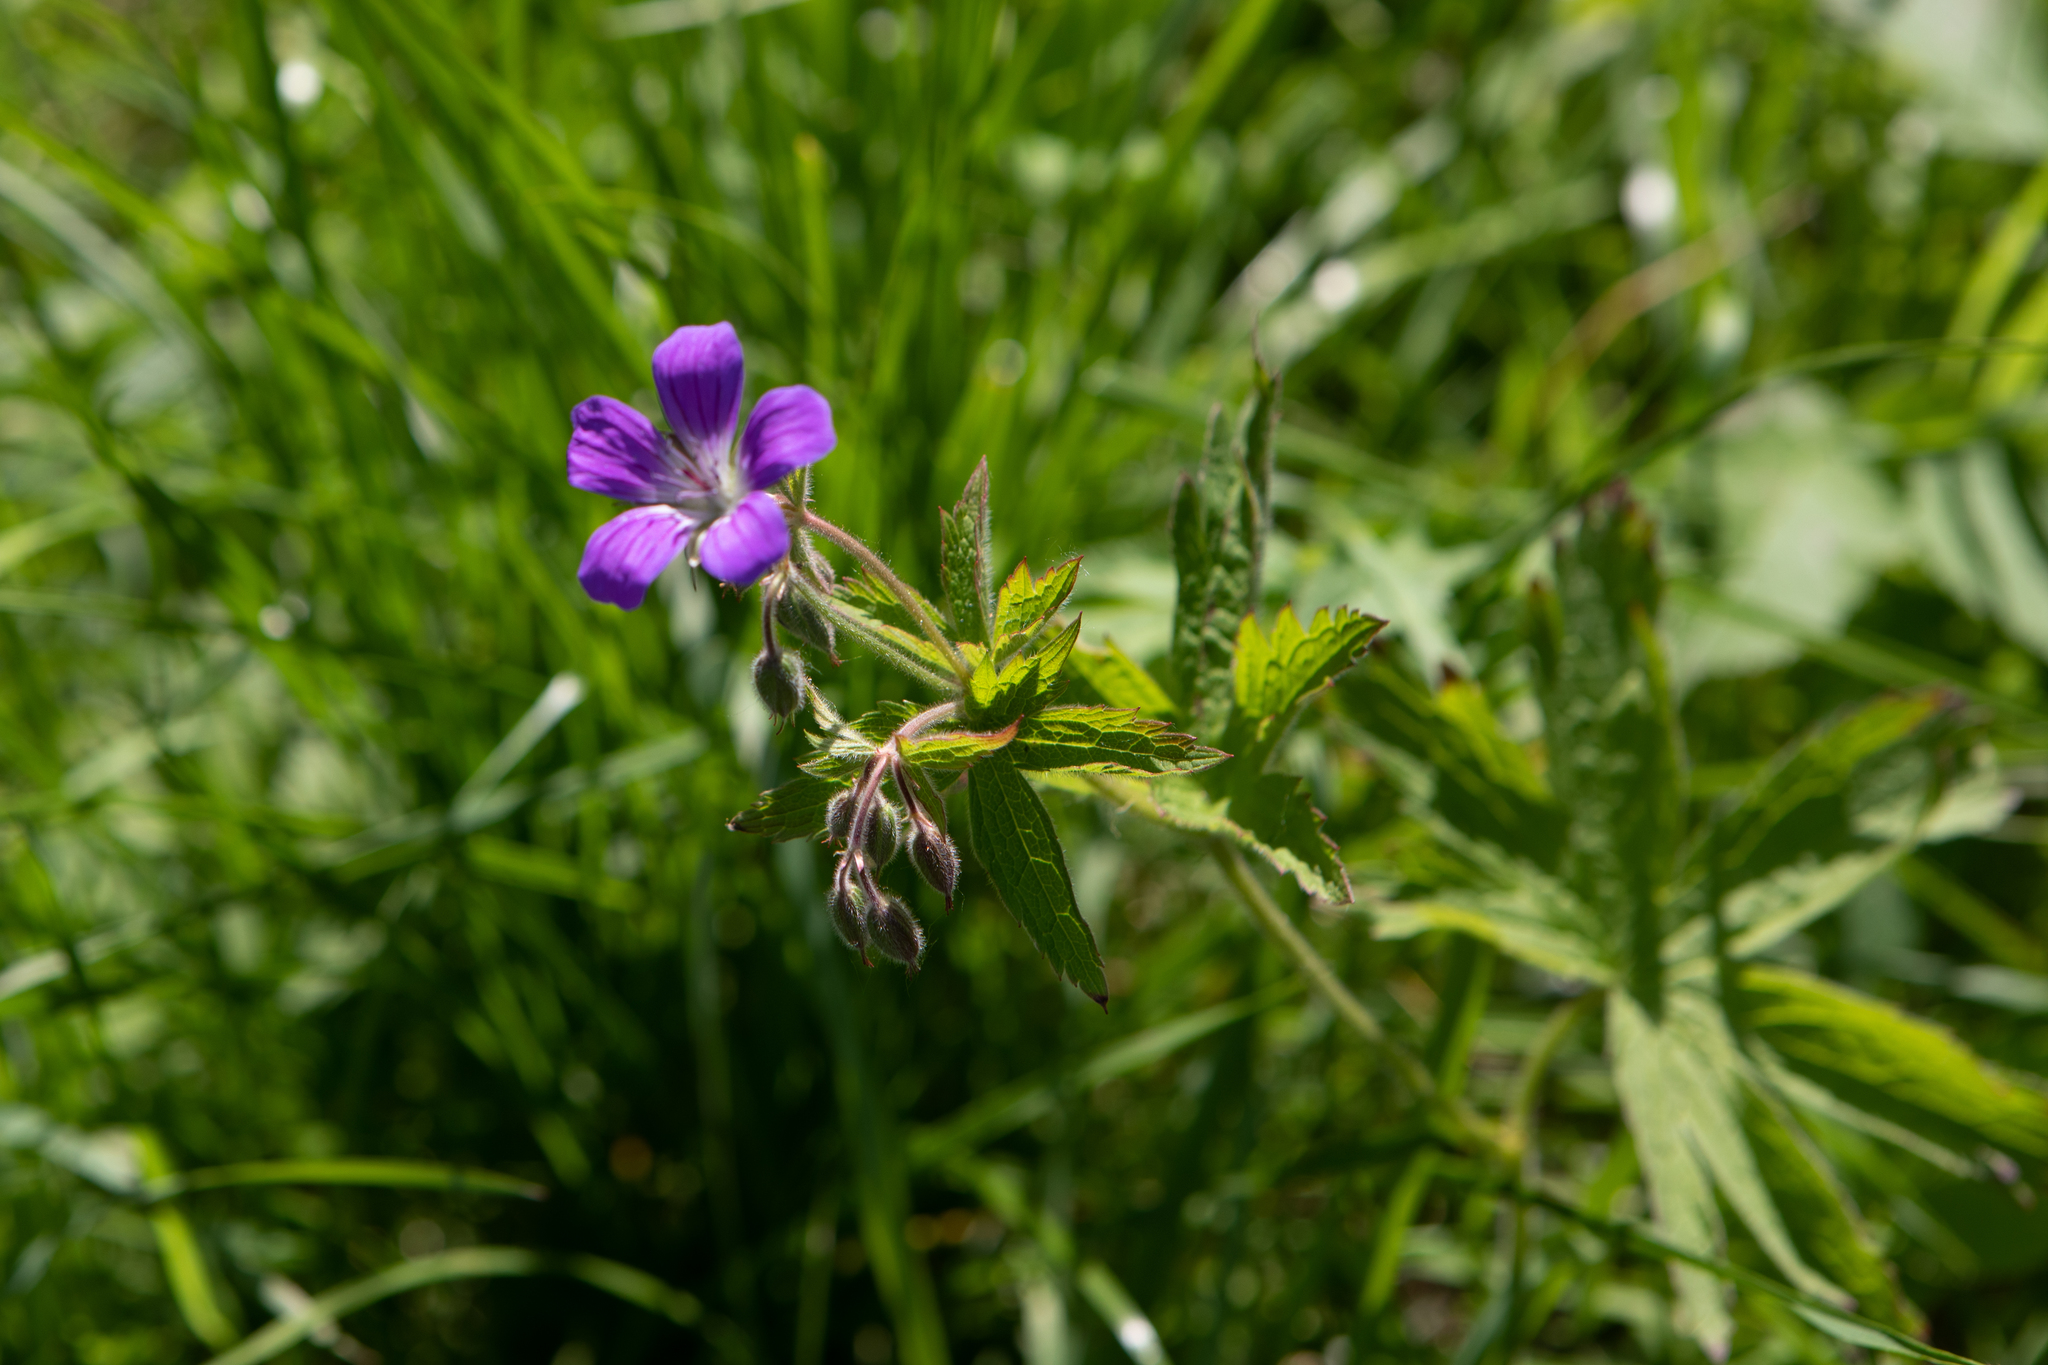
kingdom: Plantae
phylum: Tracheophyta
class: Magnoliopsida
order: Geraniales
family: Geraniaceae
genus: Geranium
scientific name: Geranium sylvaticum
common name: Wood crane's-bill
